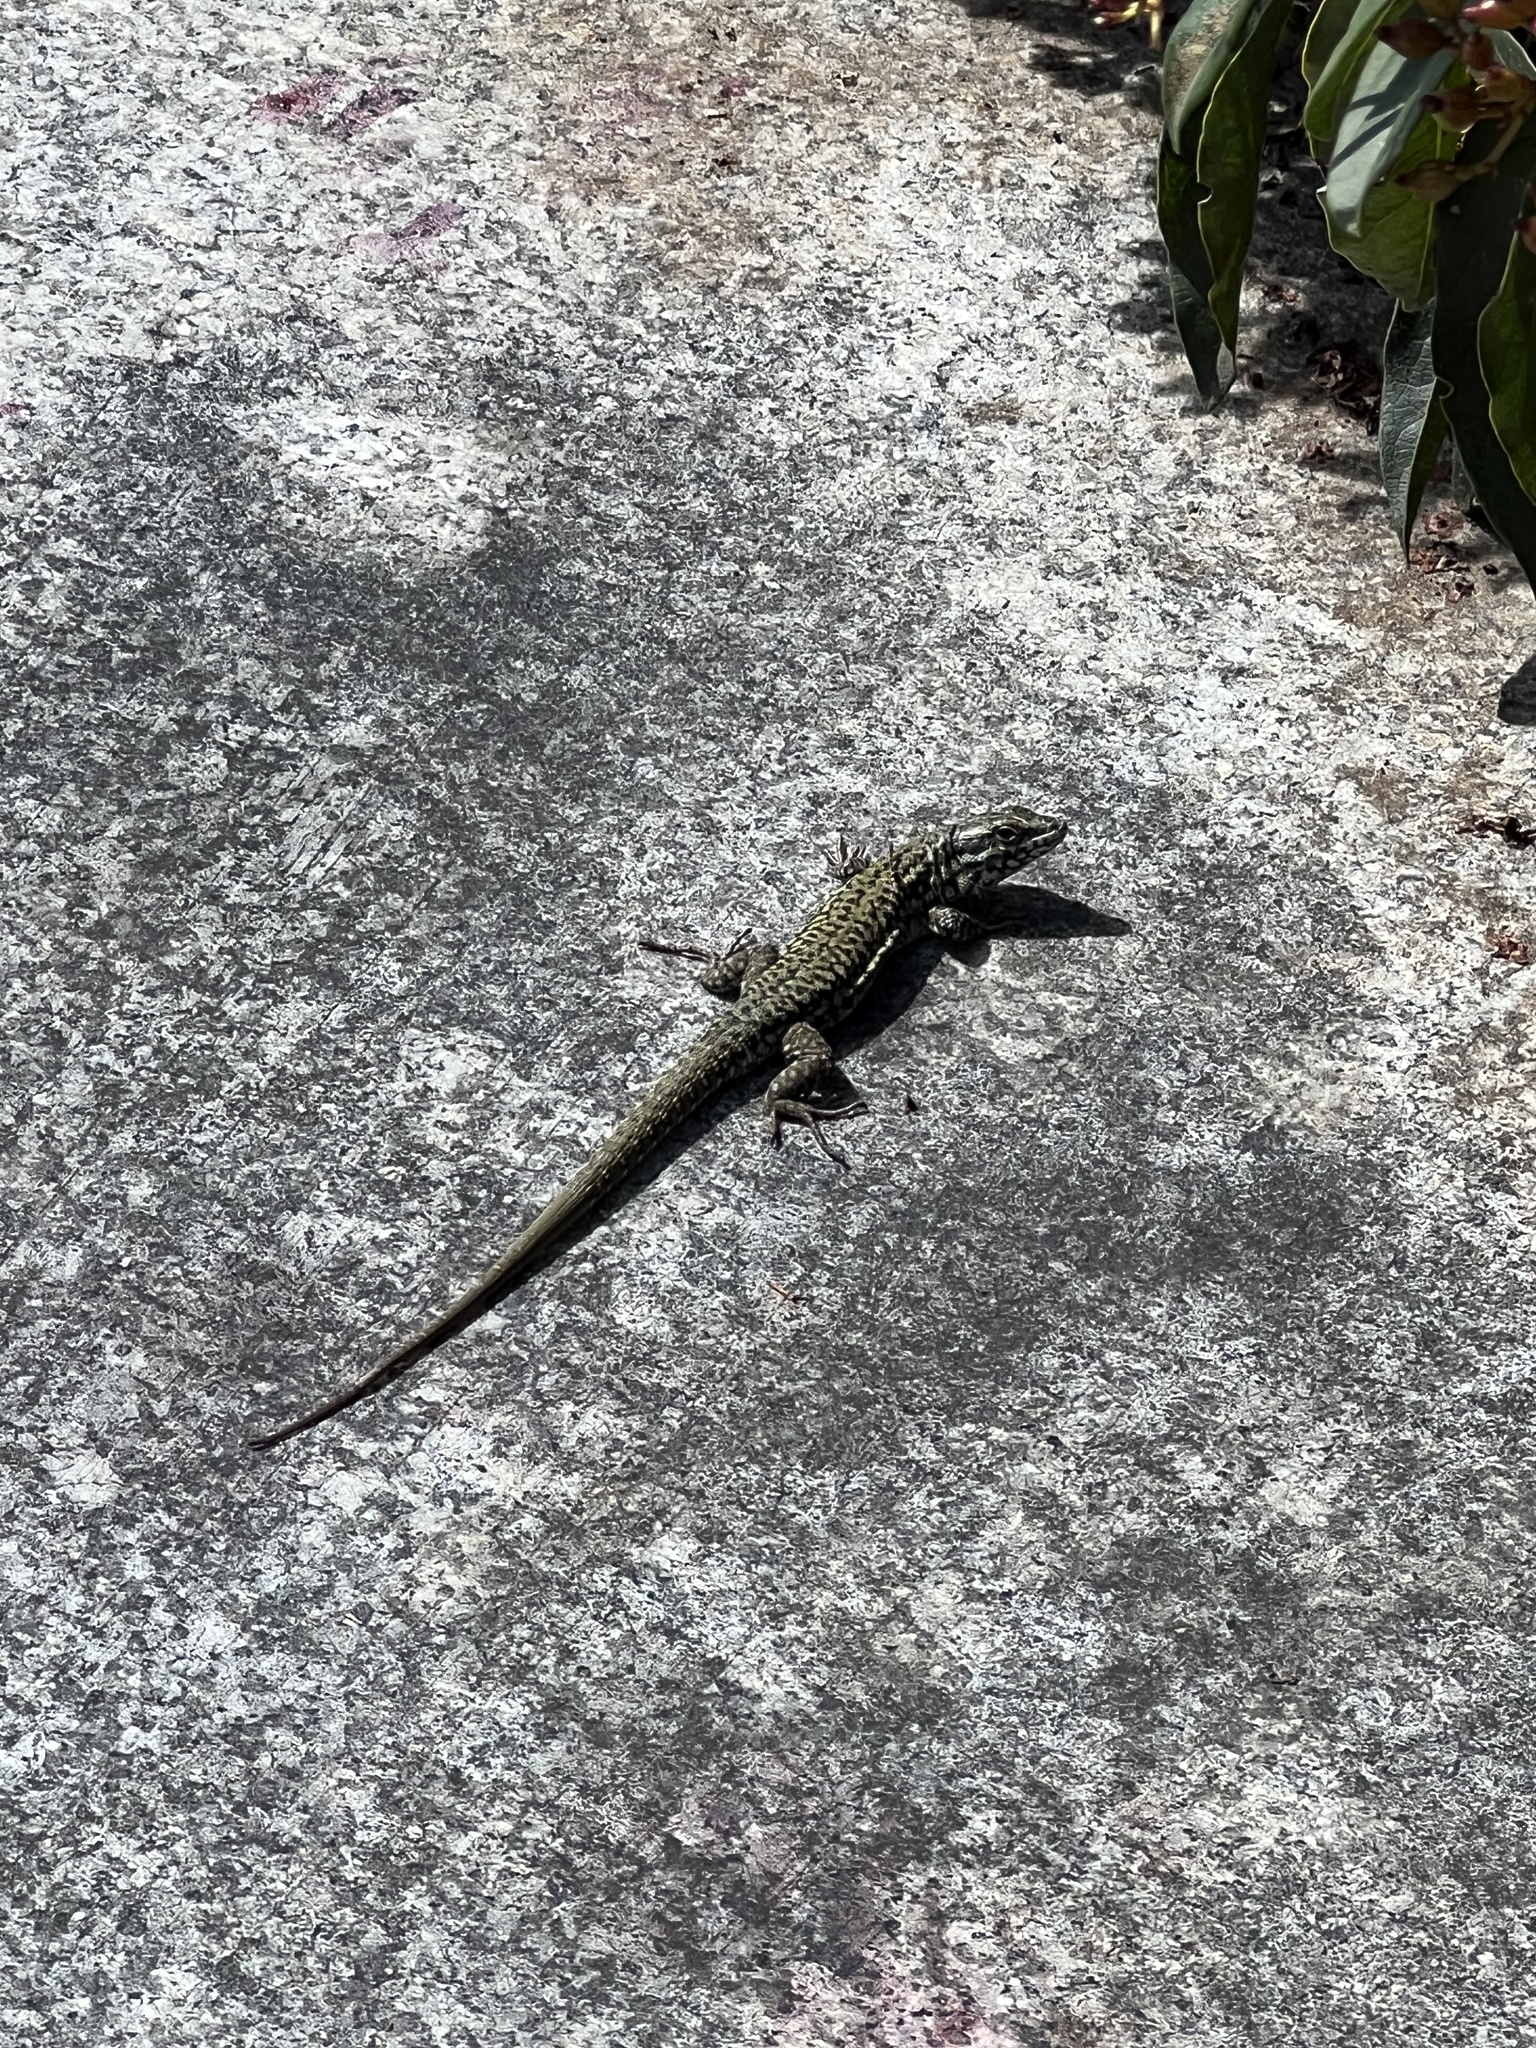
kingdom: Animalia
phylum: Chordata
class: Squamata
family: Lacertidae
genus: Podarcis
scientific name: Podarcis muralis
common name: Common wall lizard
